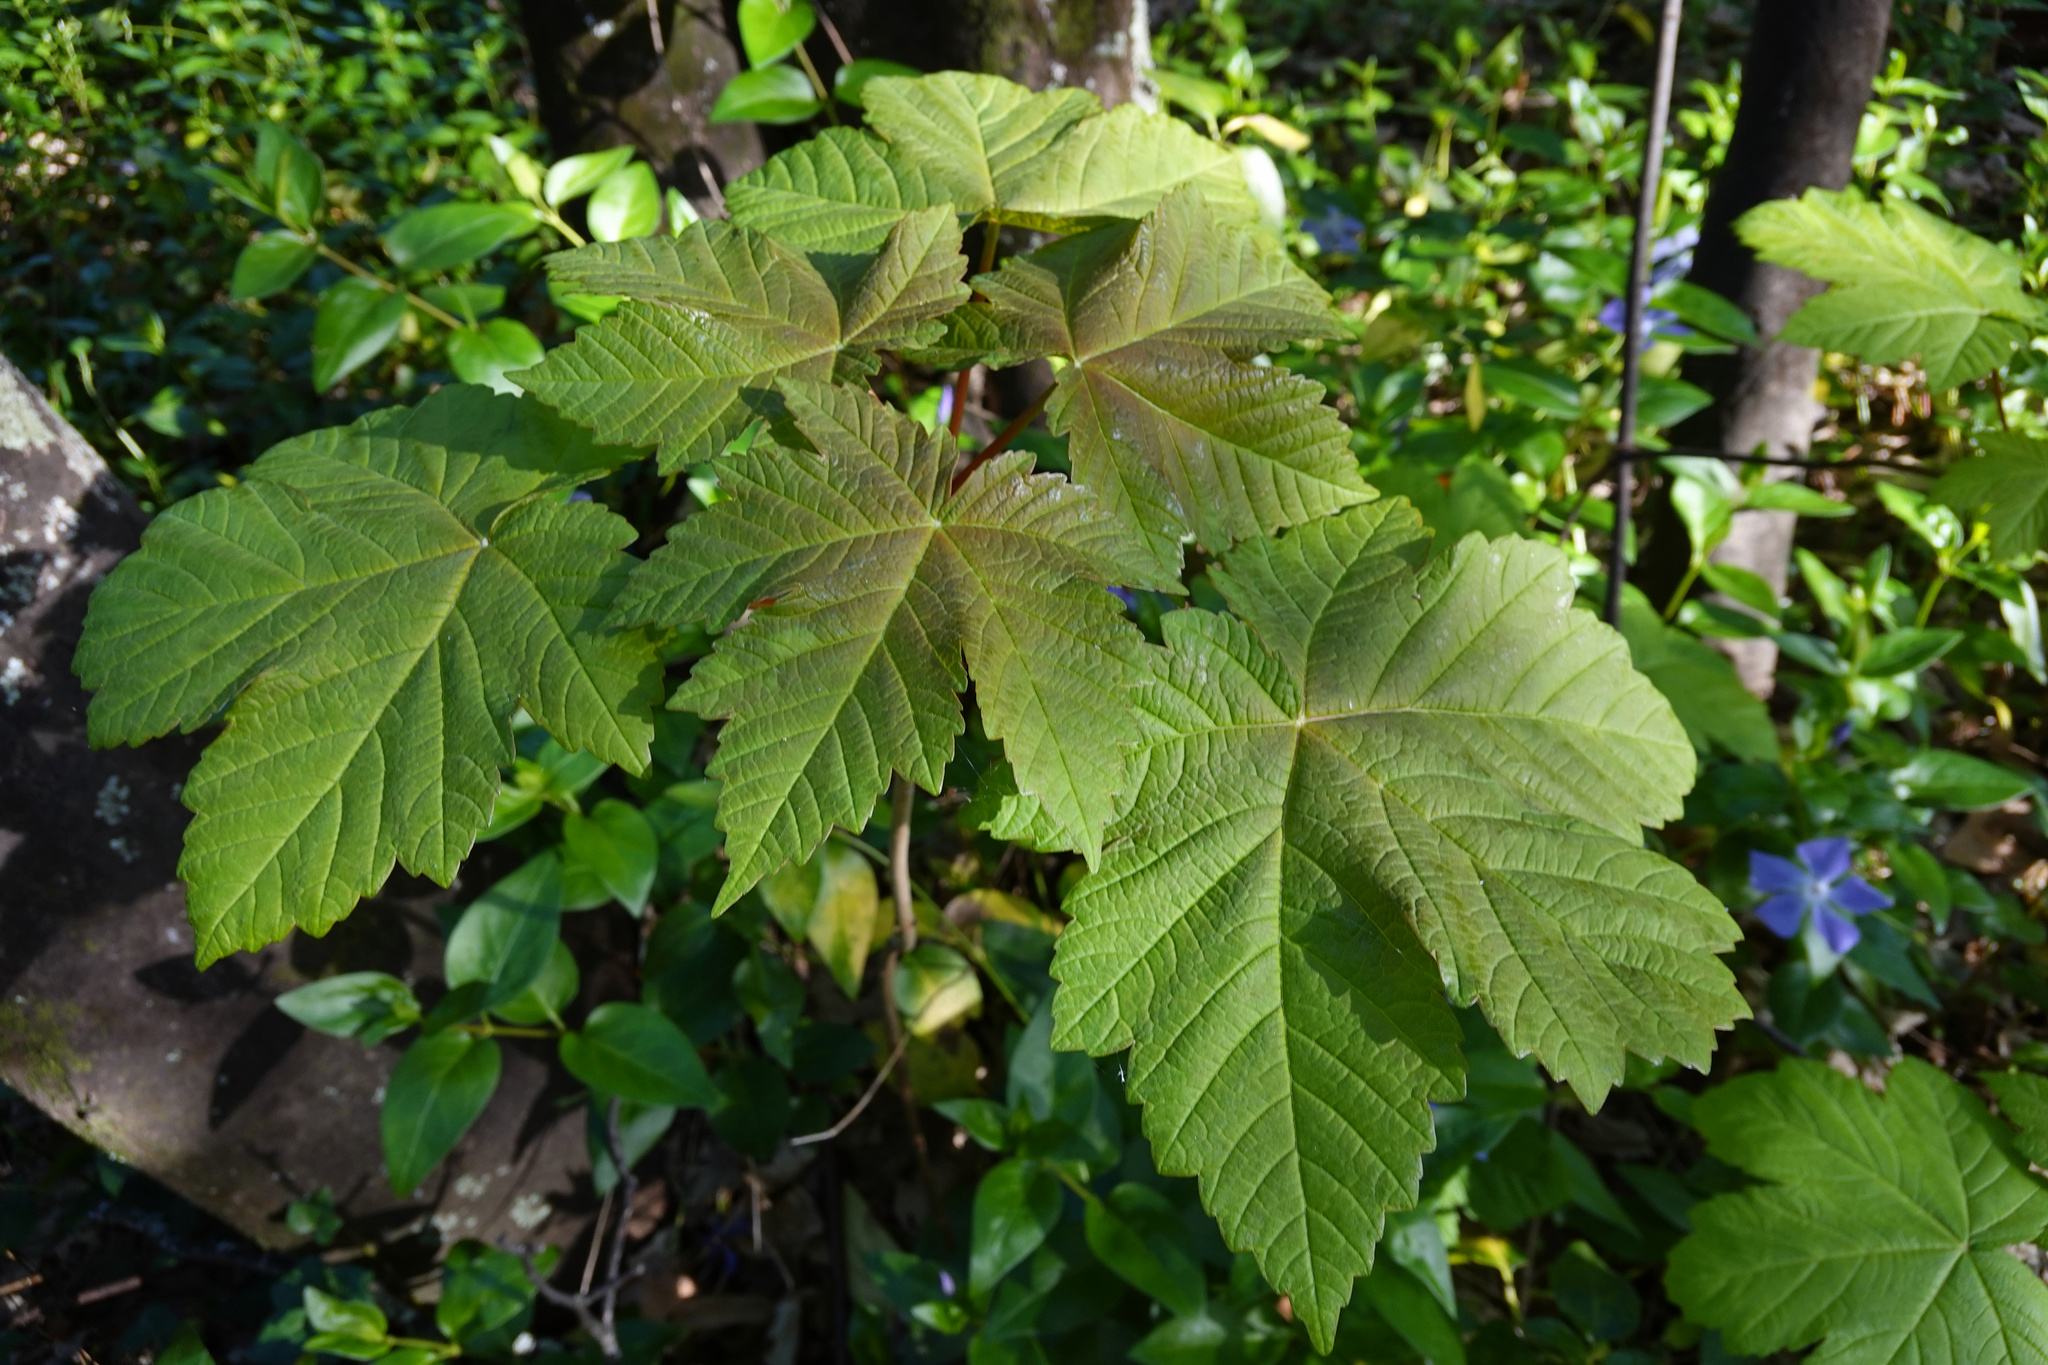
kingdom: Plantae
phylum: Tracheophyta
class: Magnoliopsida
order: Sapindales
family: Sapindaceae
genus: Acer
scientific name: Acer pseudoplatanus
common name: Sycamore
